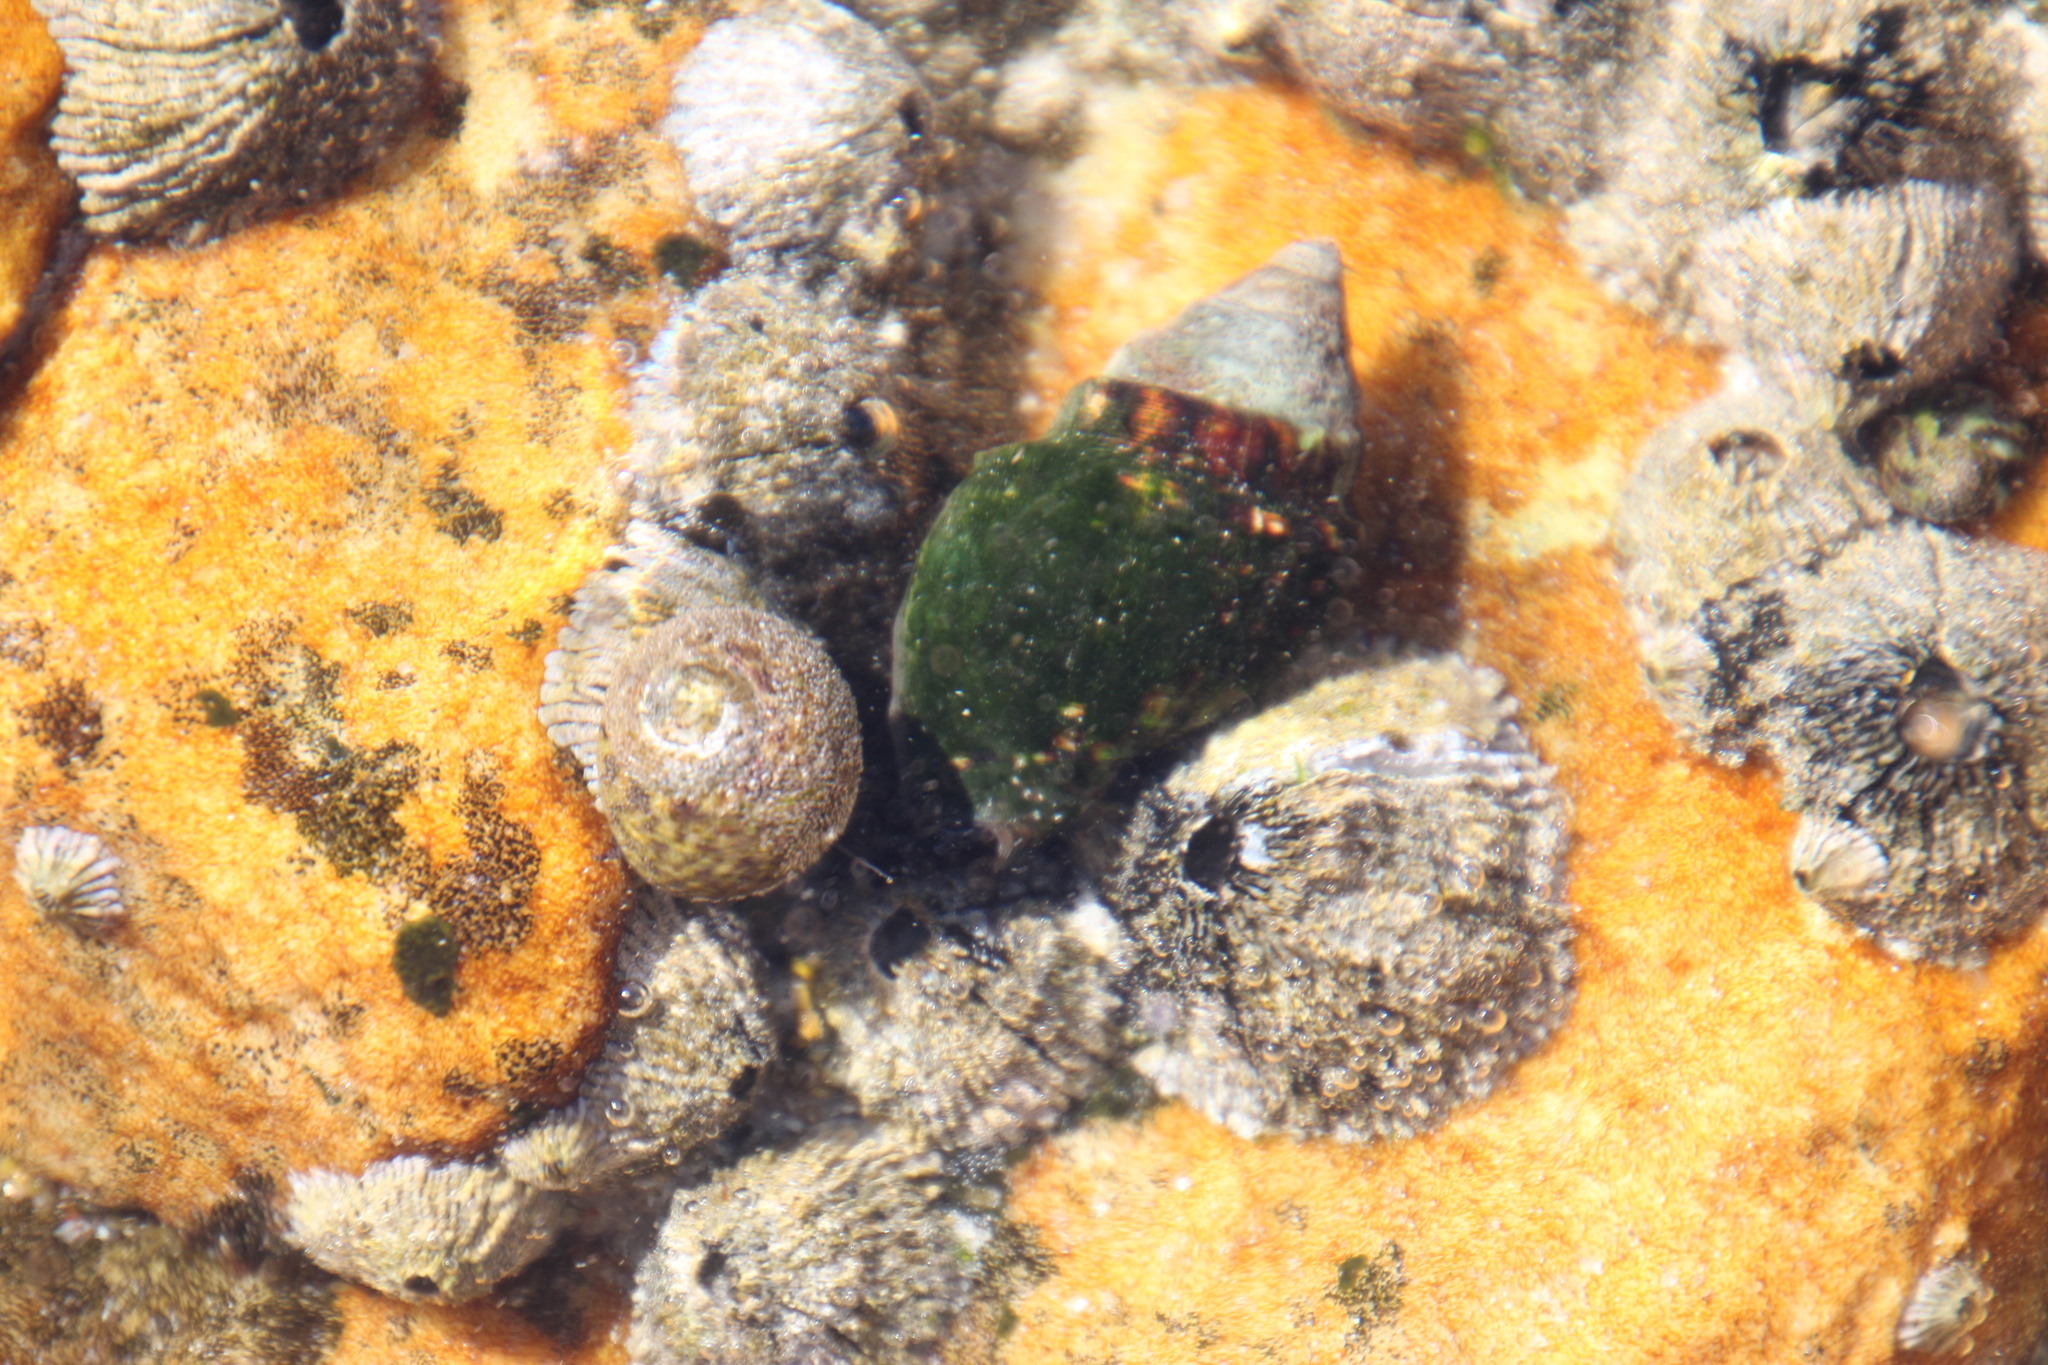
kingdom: Animalia
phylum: Mollusca
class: Gastropoda
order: Neogastropoda
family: Buccinidae
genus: Burnupena
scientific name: Burnupena lagenaria
